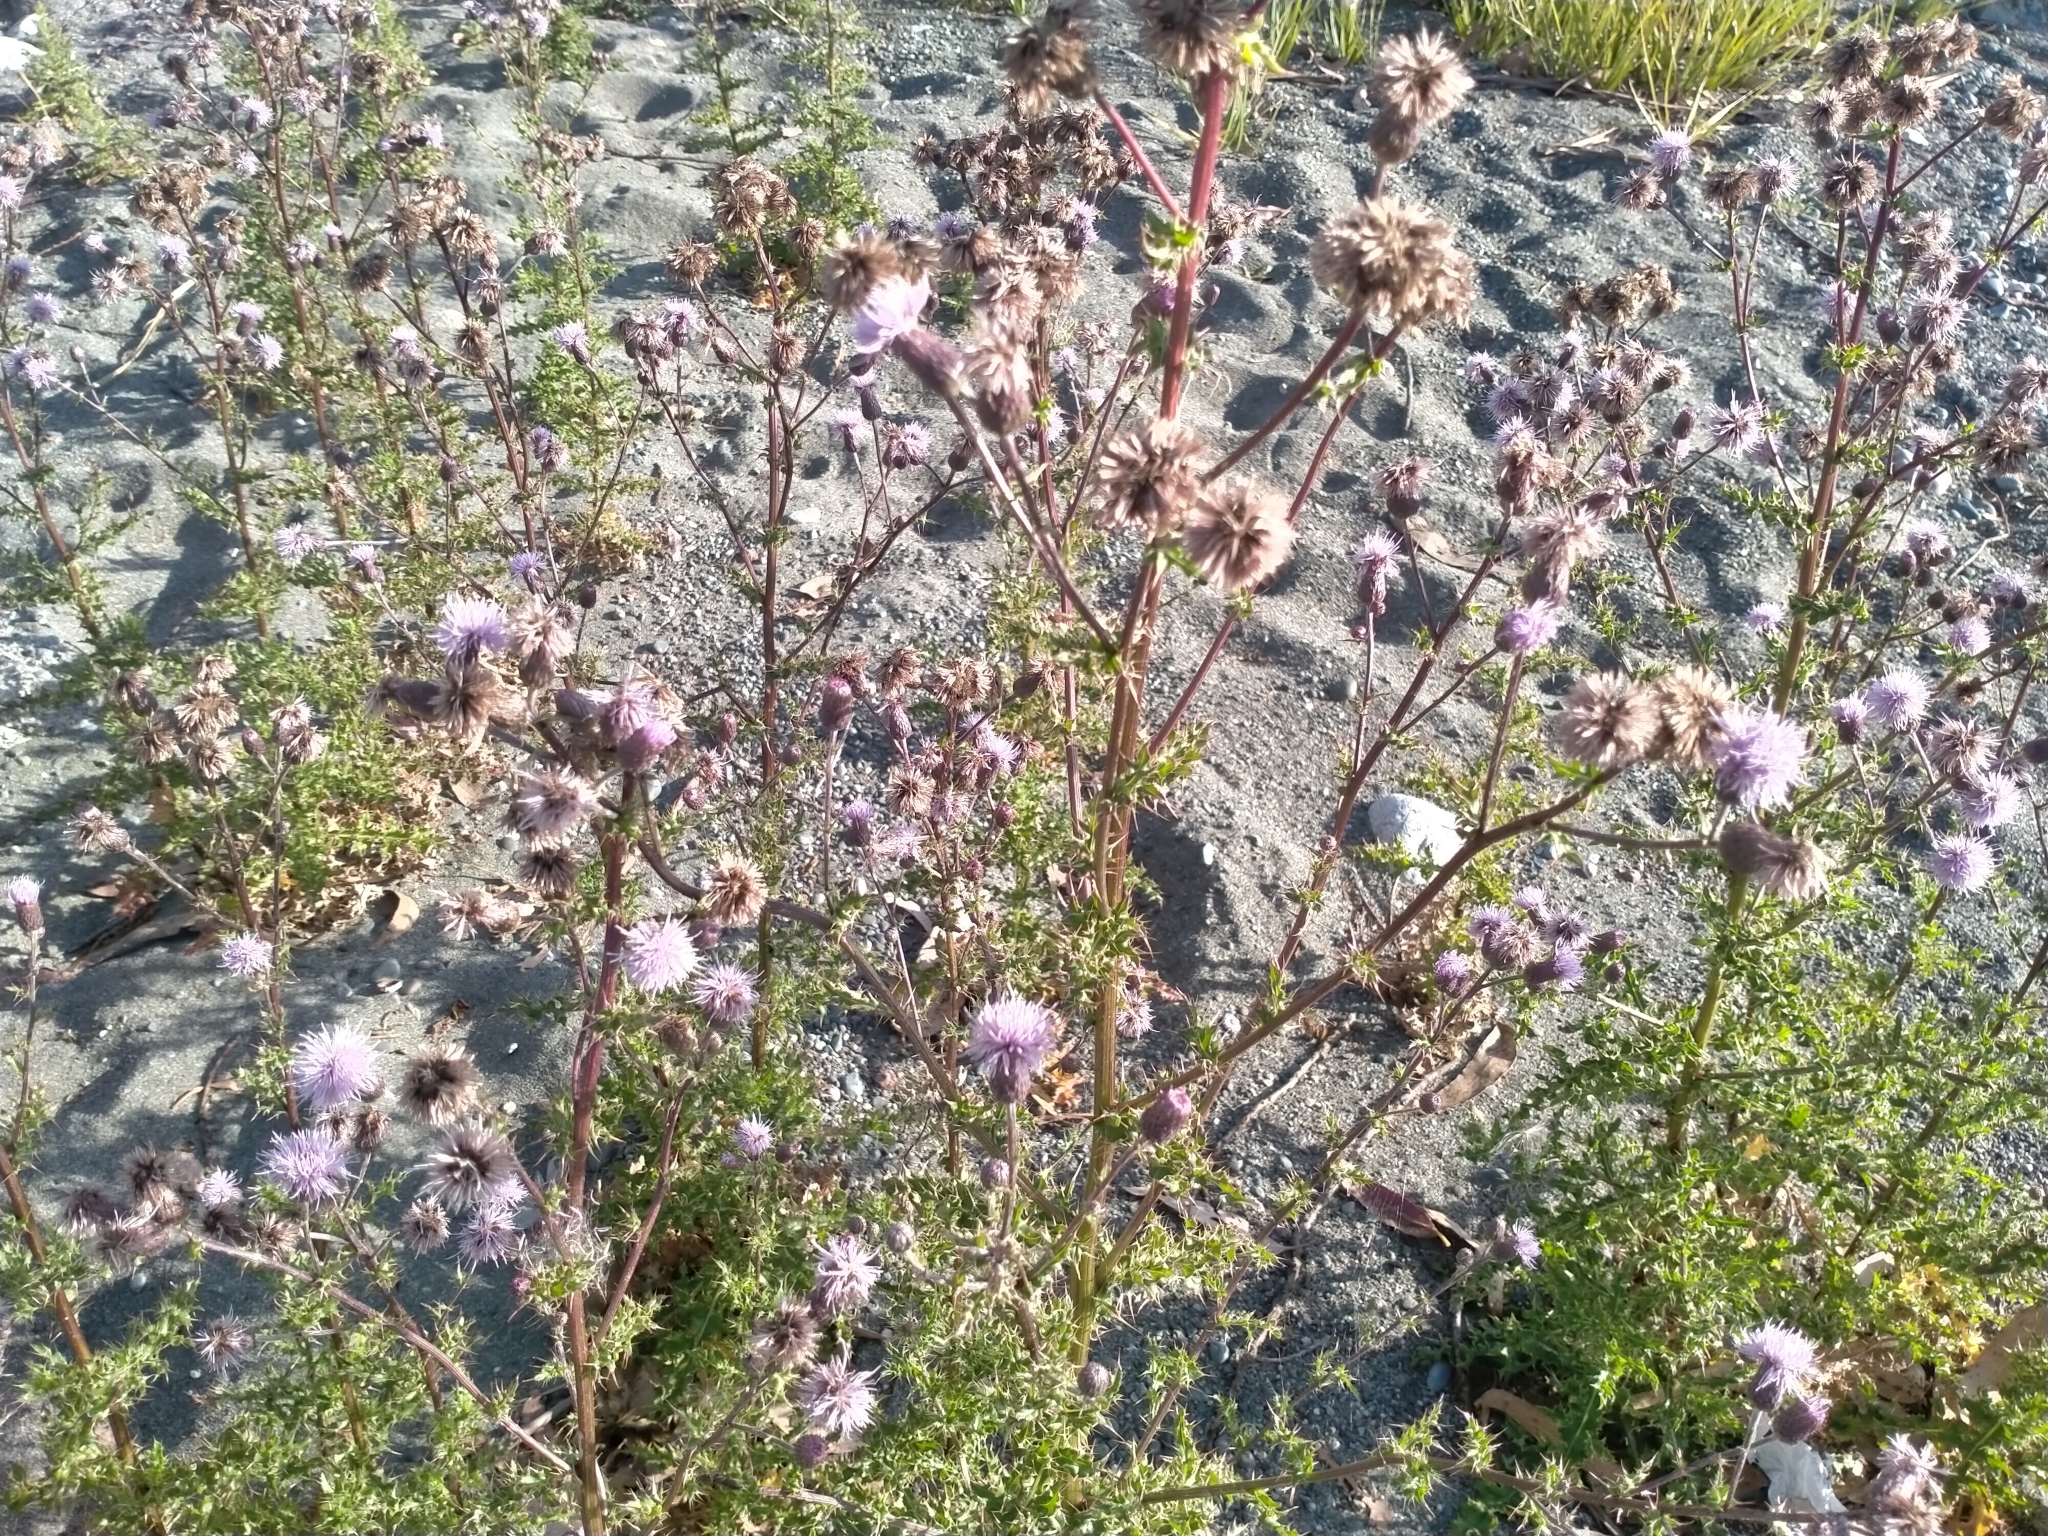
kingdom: Plantae
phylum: Tracheophyta
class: Magnoliopsida
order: Asterales
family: Asteraceae
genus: Cirsium
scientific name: Cirsium arvense
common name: Creeping thistle
